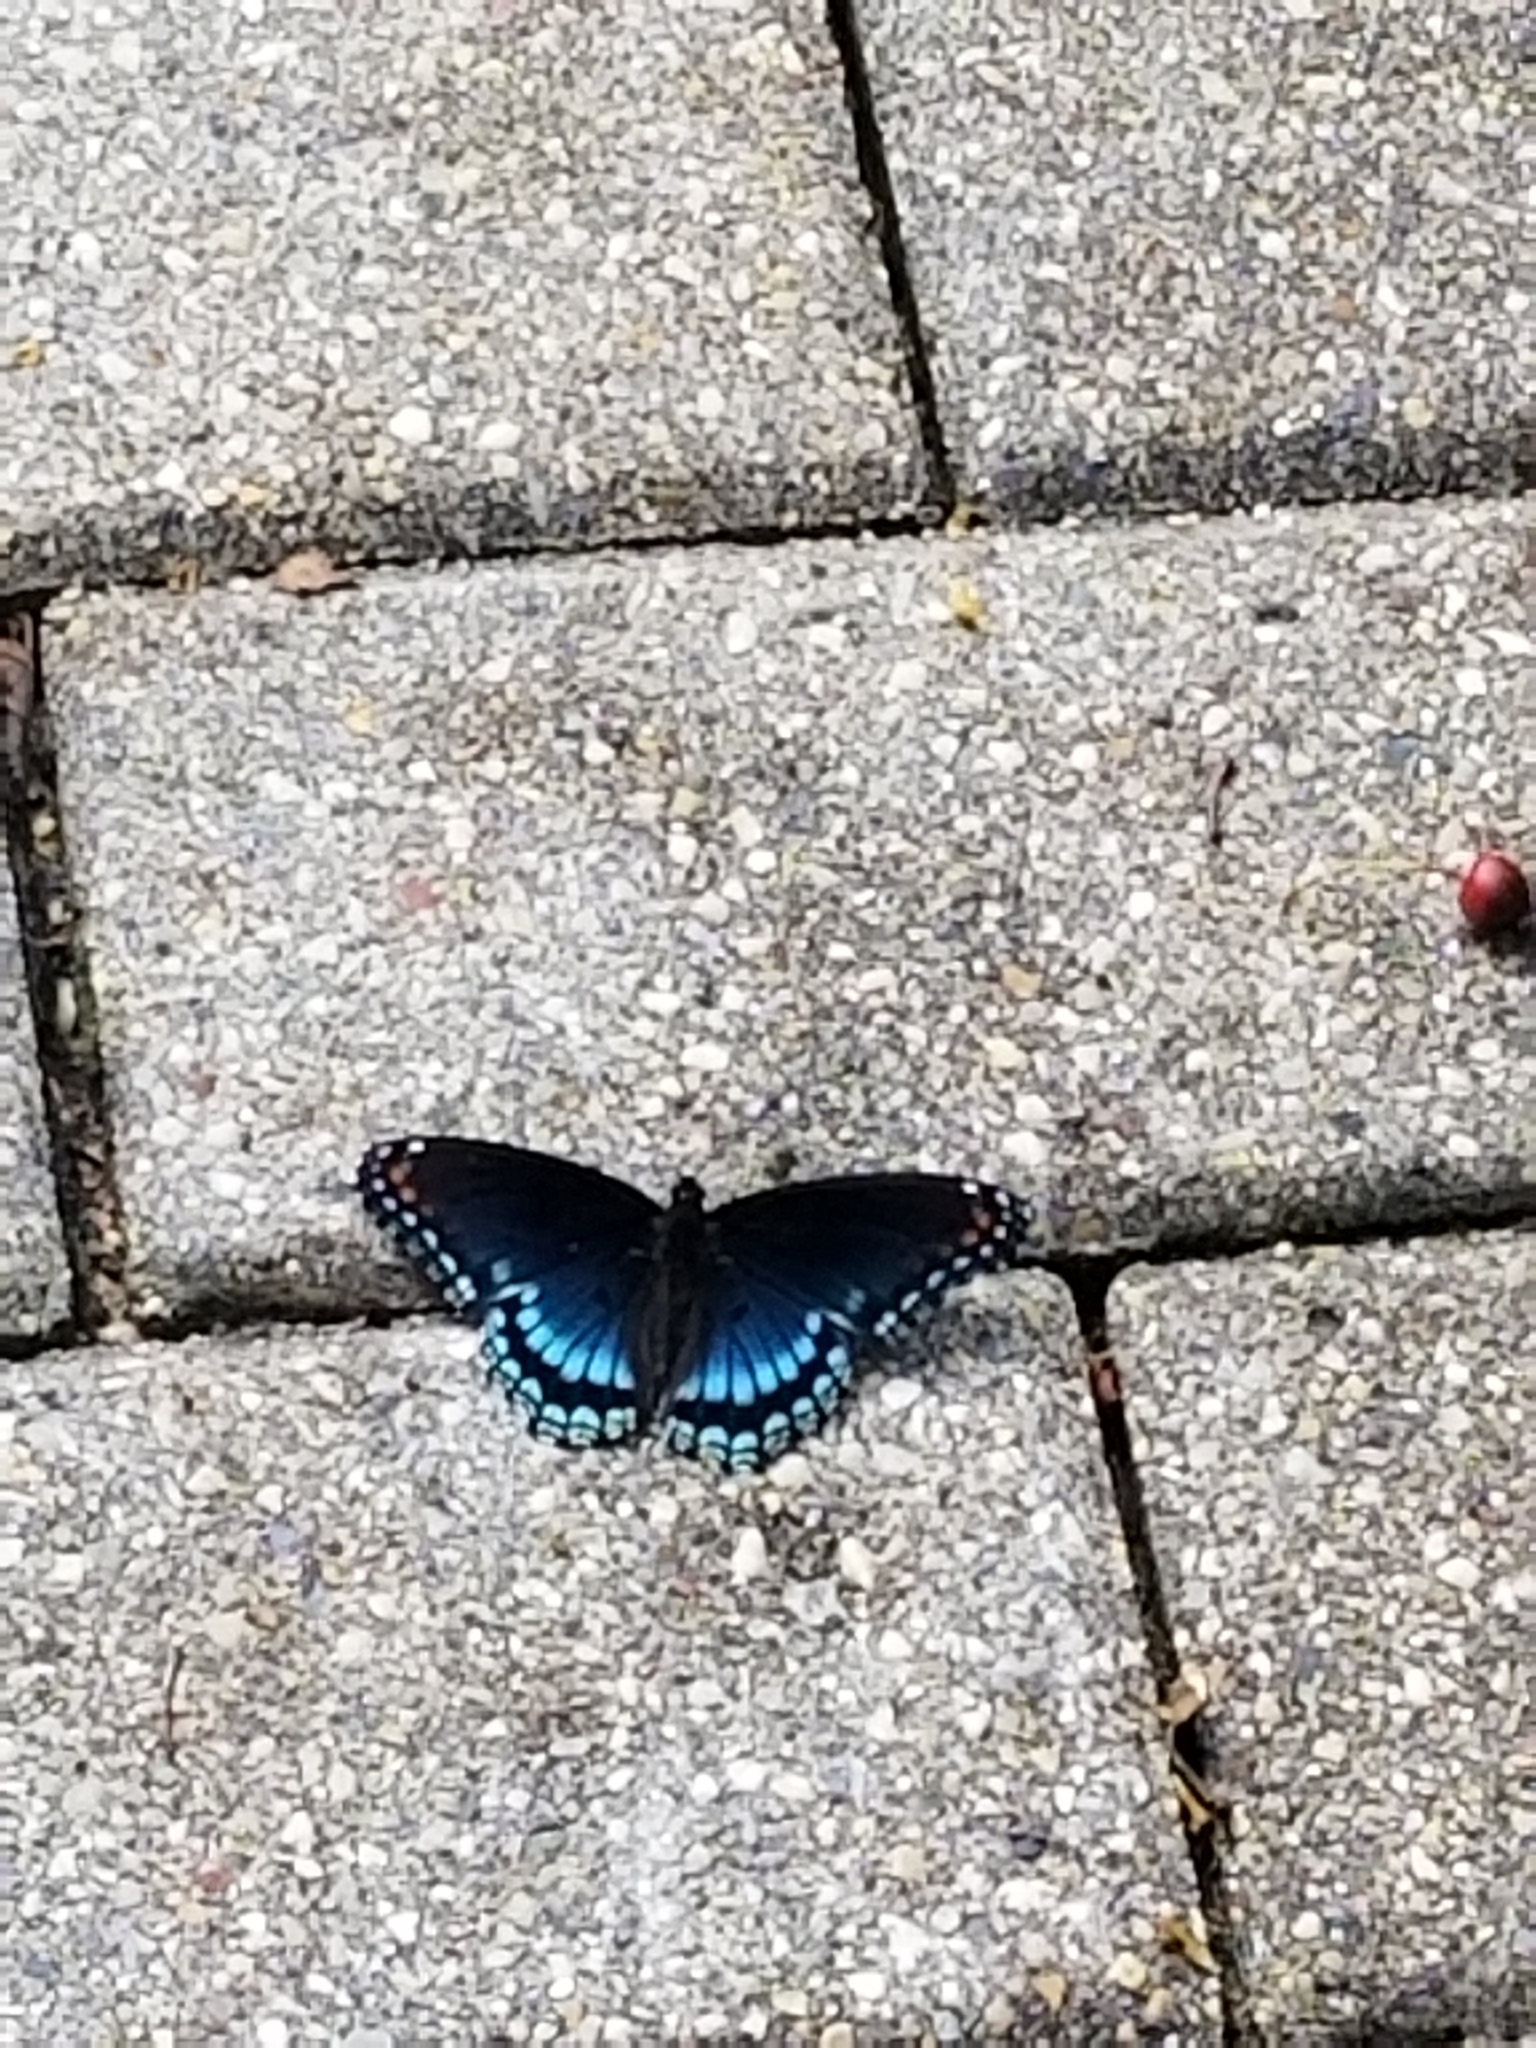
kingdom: Animalia
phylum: Arthropoda
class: Insecta
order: Lepidoptera
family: Nymphalidae
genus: Limenitis
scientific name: Limenitis astyanax
